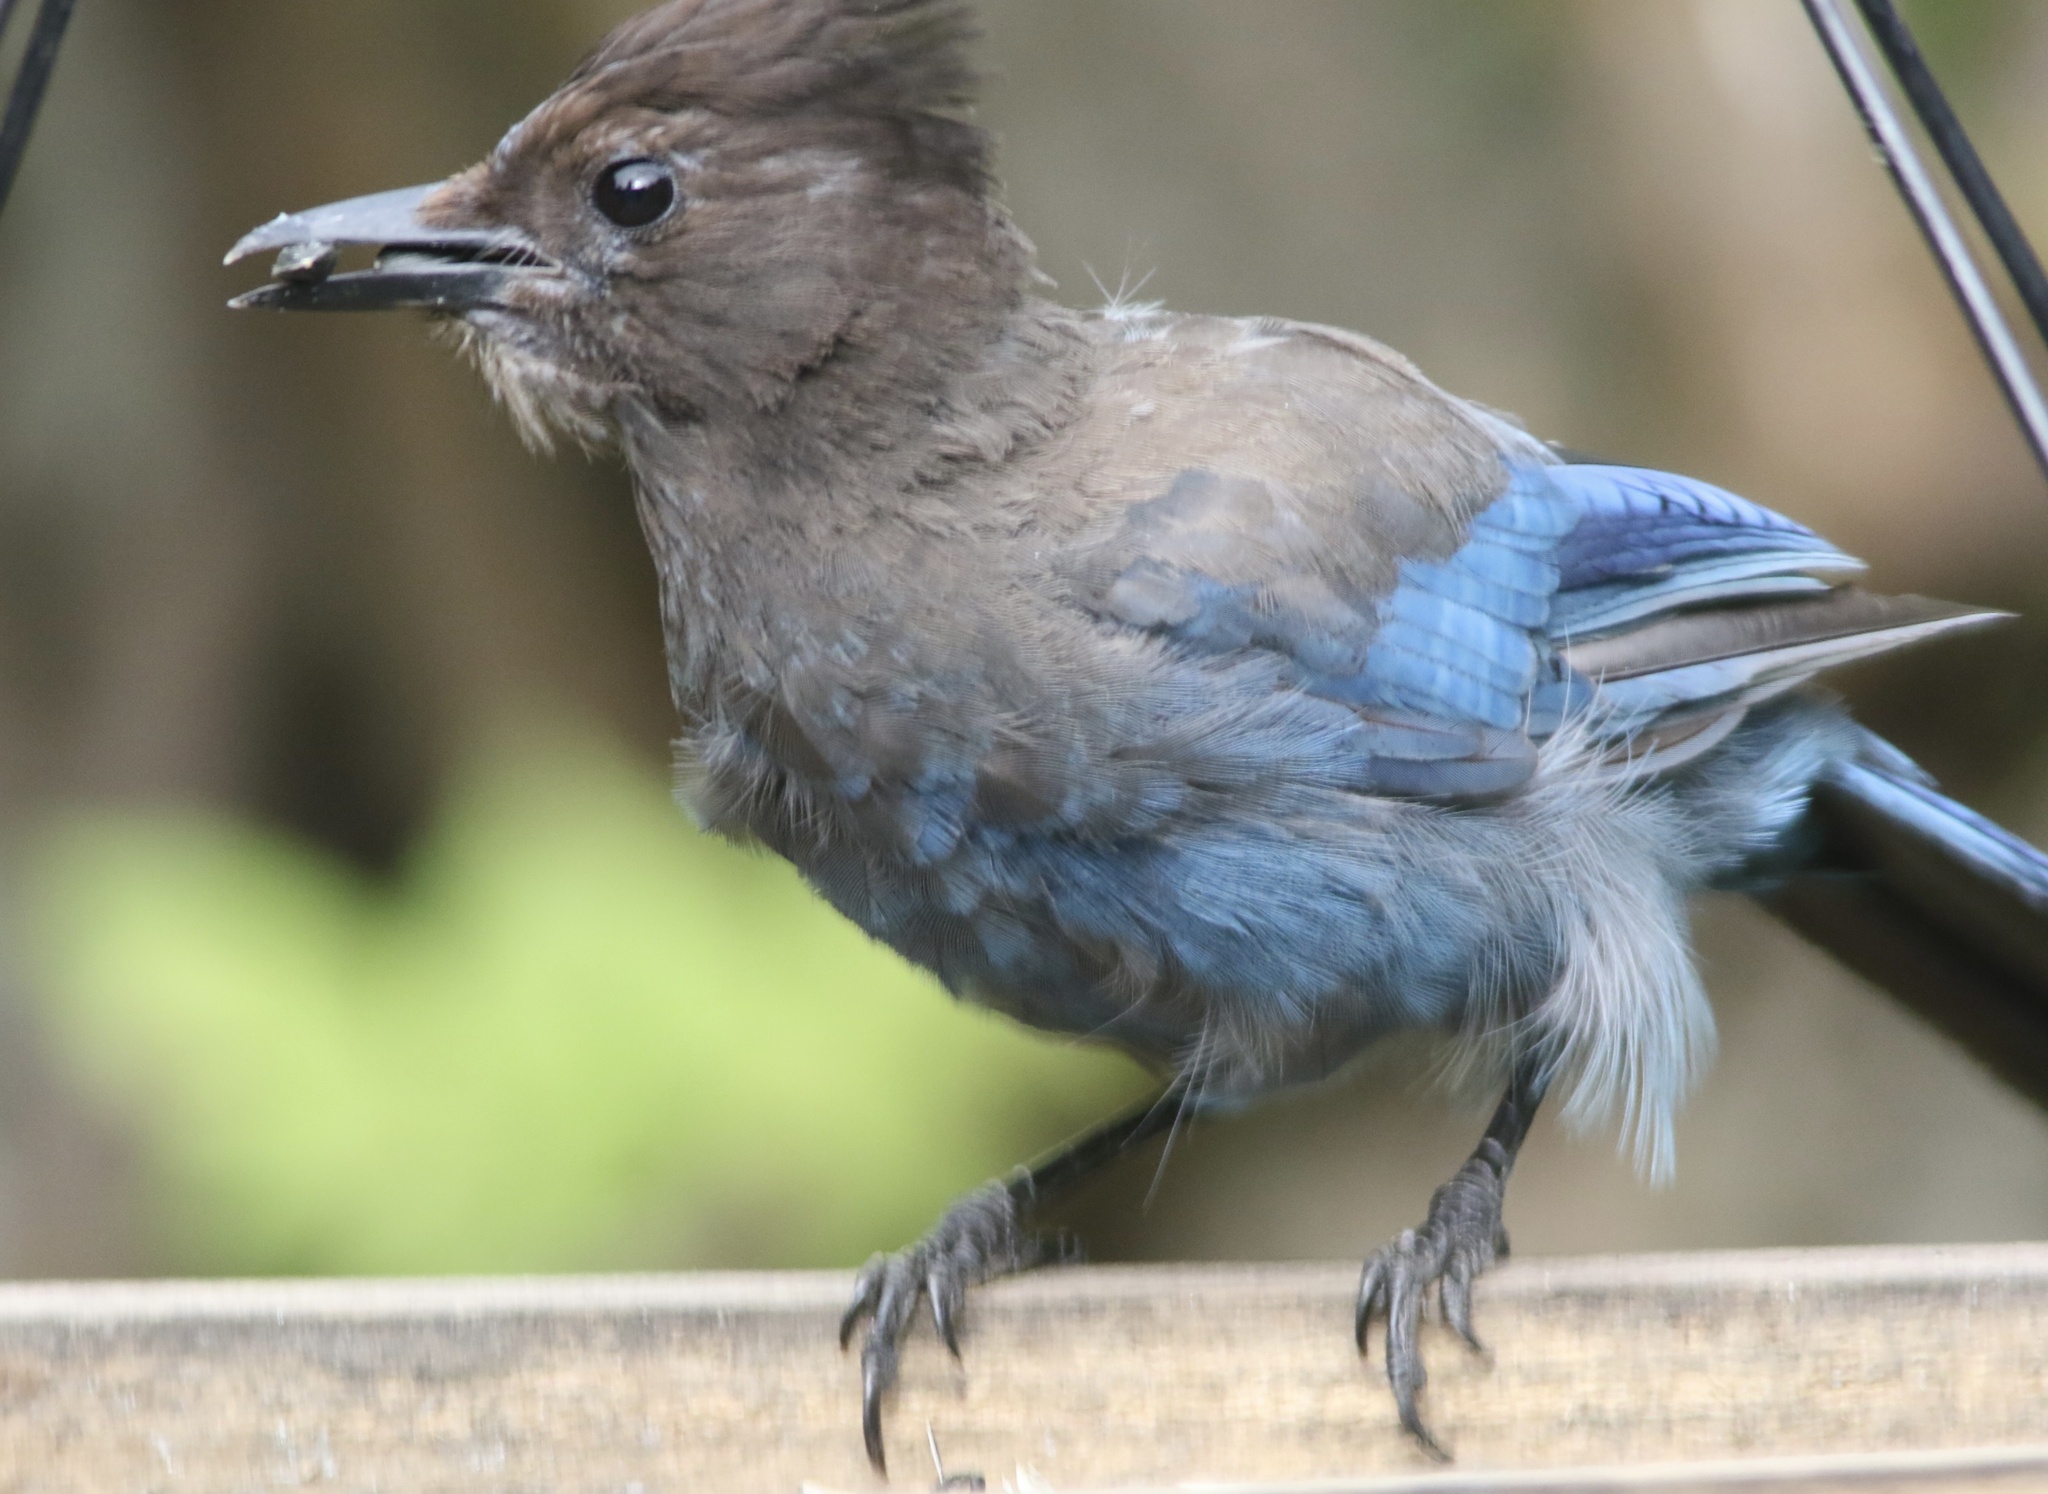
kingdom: Animalia
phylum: Chordata
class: Aves
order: Passeriformes
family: Corvidae
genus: Cyanocitta
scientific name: Cyanocitta stelleri
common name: Steller's jay
